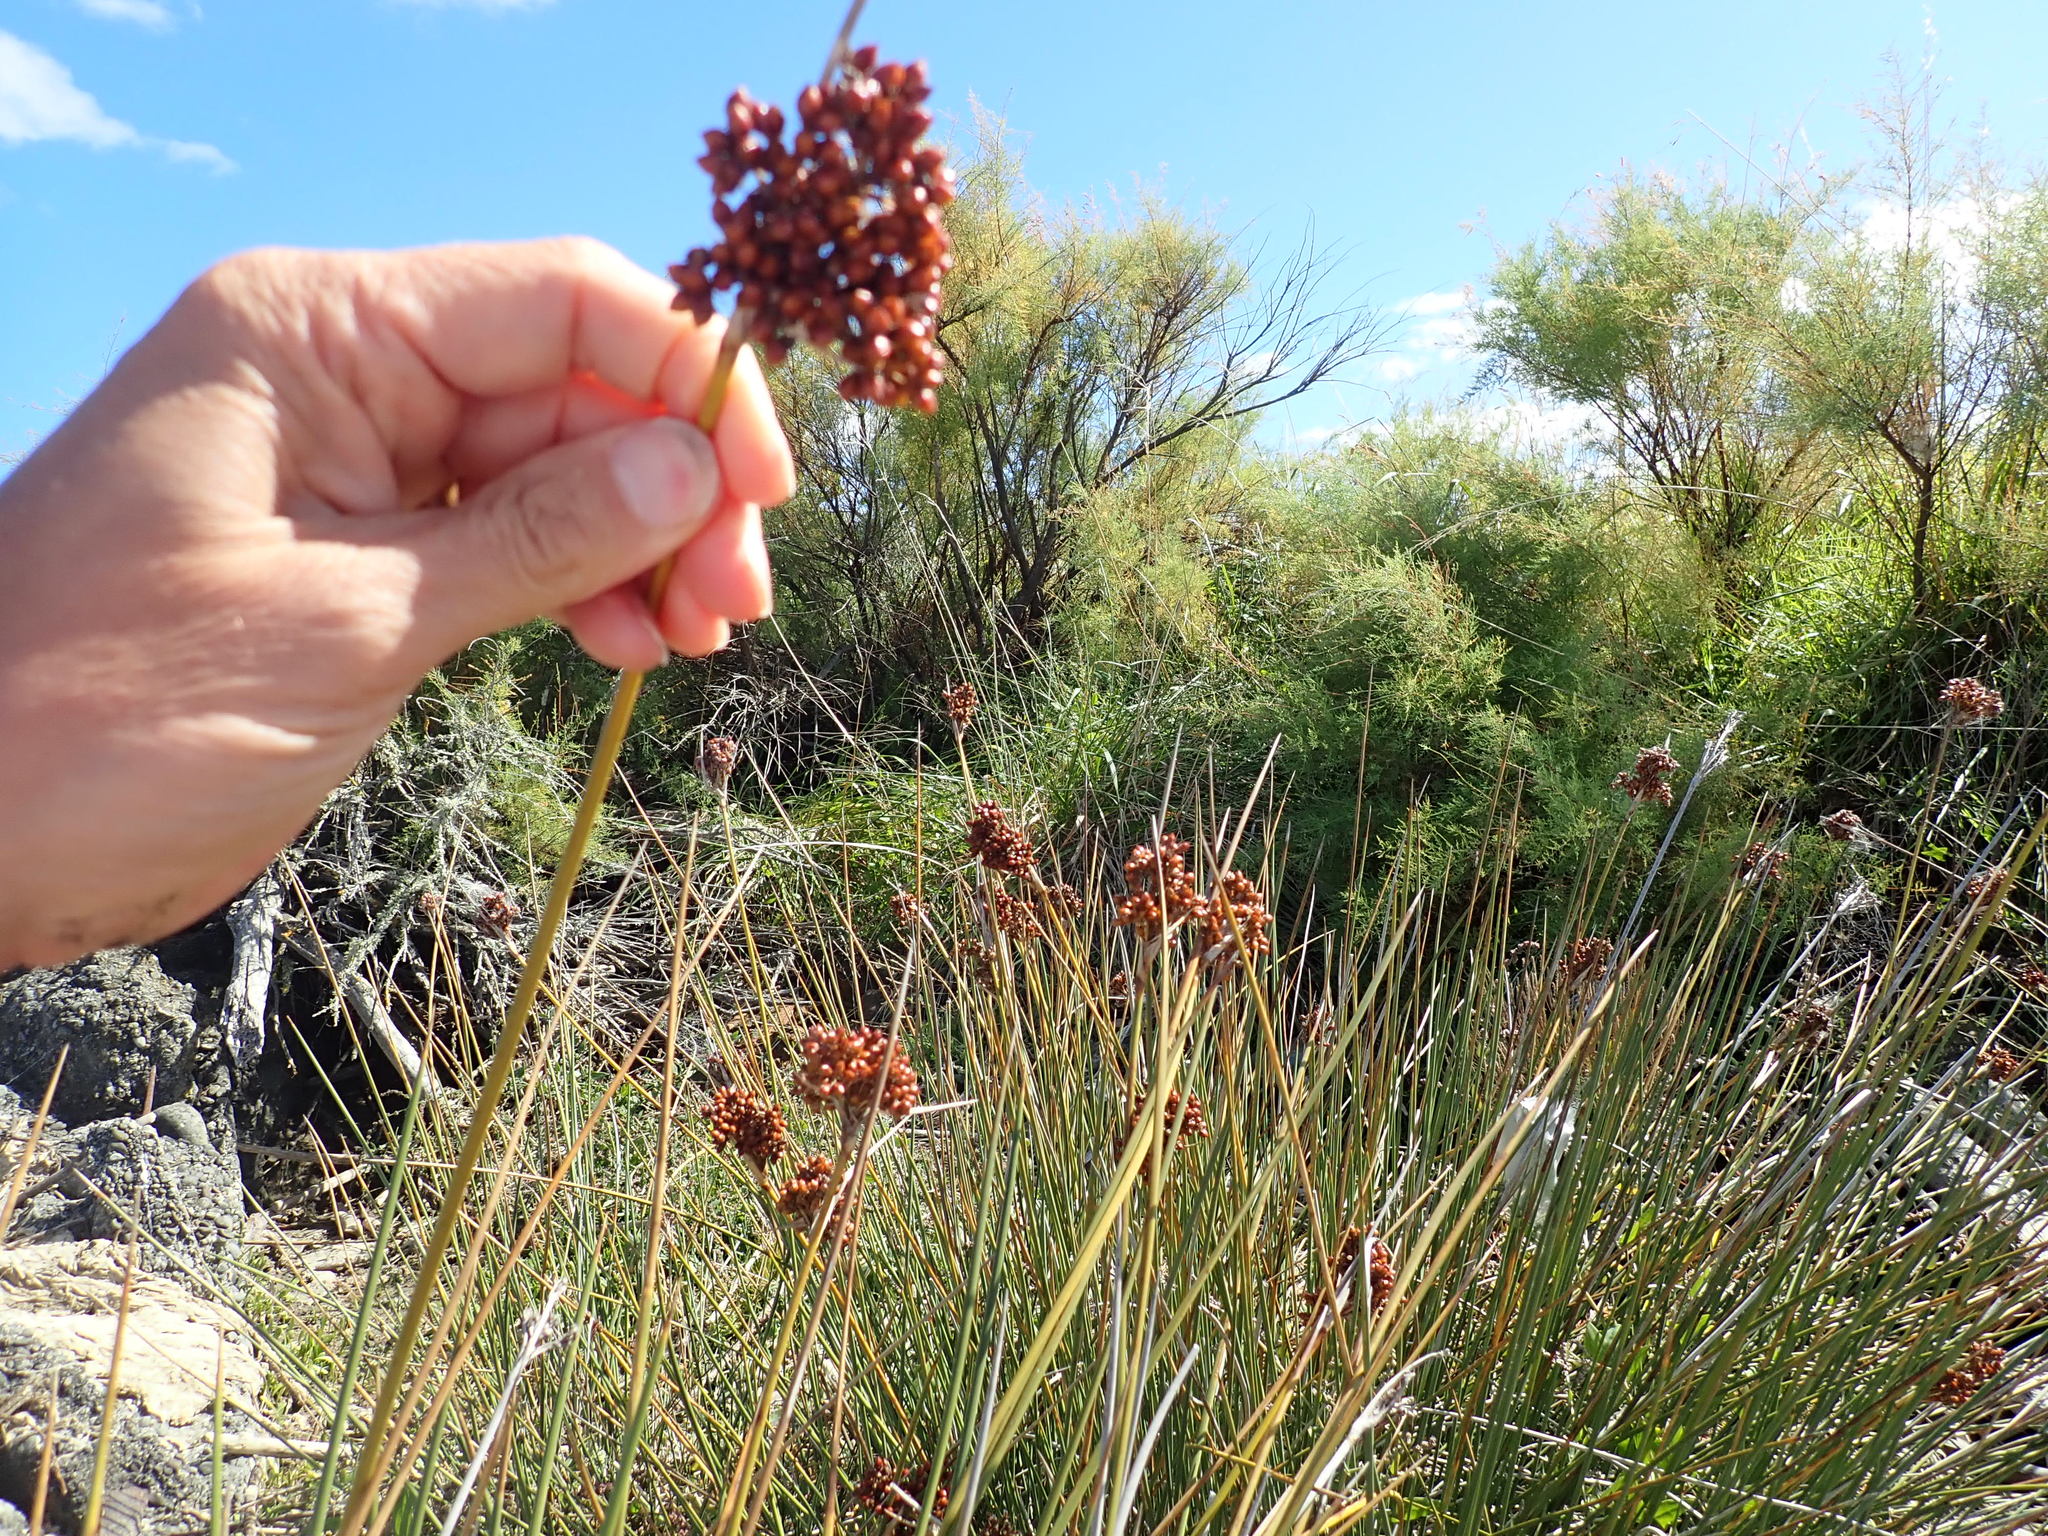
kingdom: Plantae
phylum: Tracheophyta
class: Liliopsida
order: Poales
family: Juncaceae
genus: Juncus
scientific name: Juncus acutus
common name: Sharp rush
